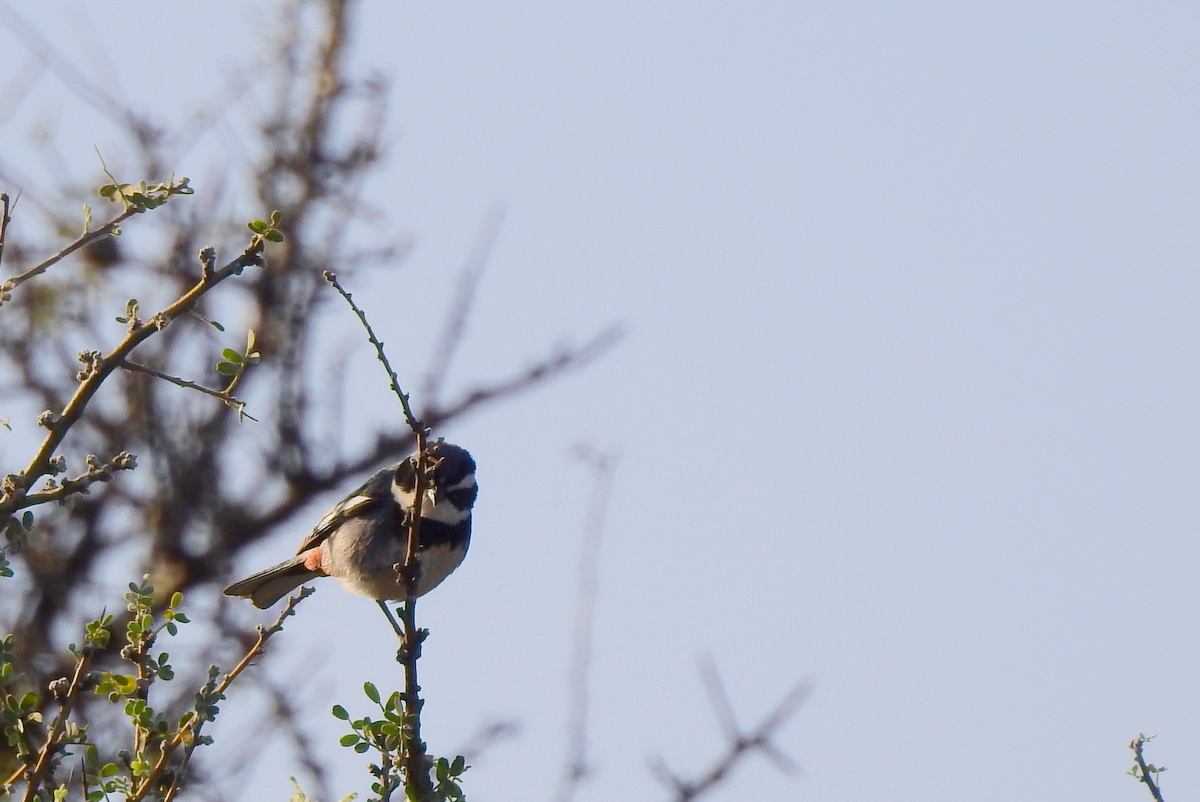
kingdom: Animalia
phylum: Chordata
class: Aves
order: Passeriformes
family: Thraupidae
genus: Microspingus
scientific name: Microspingus torquatus
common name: Ringed warbling-finch
